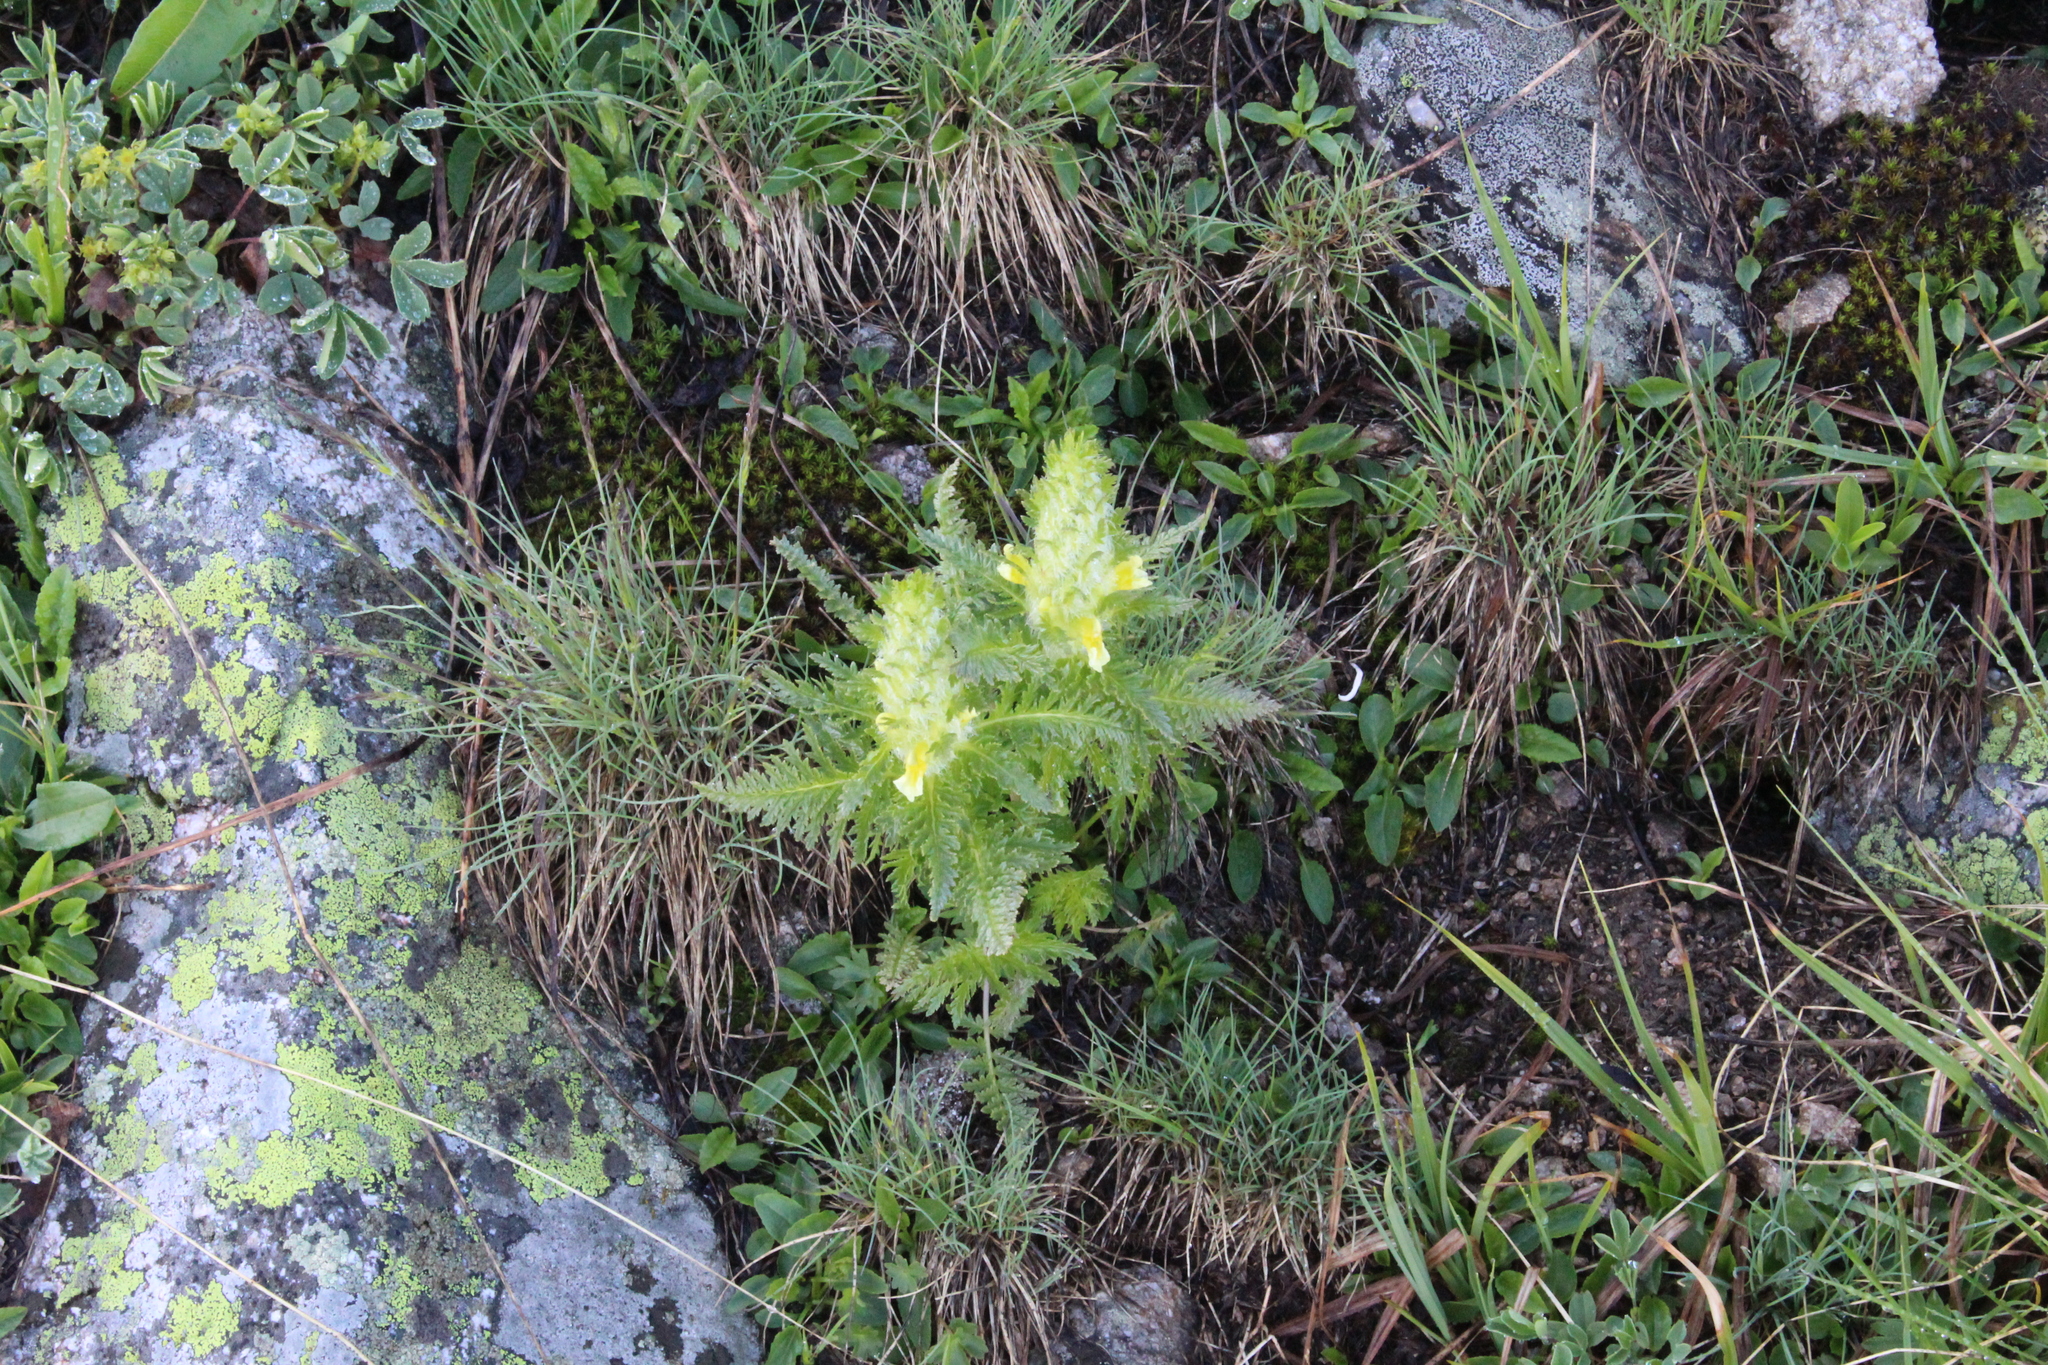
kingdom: Plantae
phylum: Tracheophyta
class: Magnoliopsida
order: Lamiales
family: Orobanchaceae
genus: Pedicularis
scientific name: Pedicularis condensata
